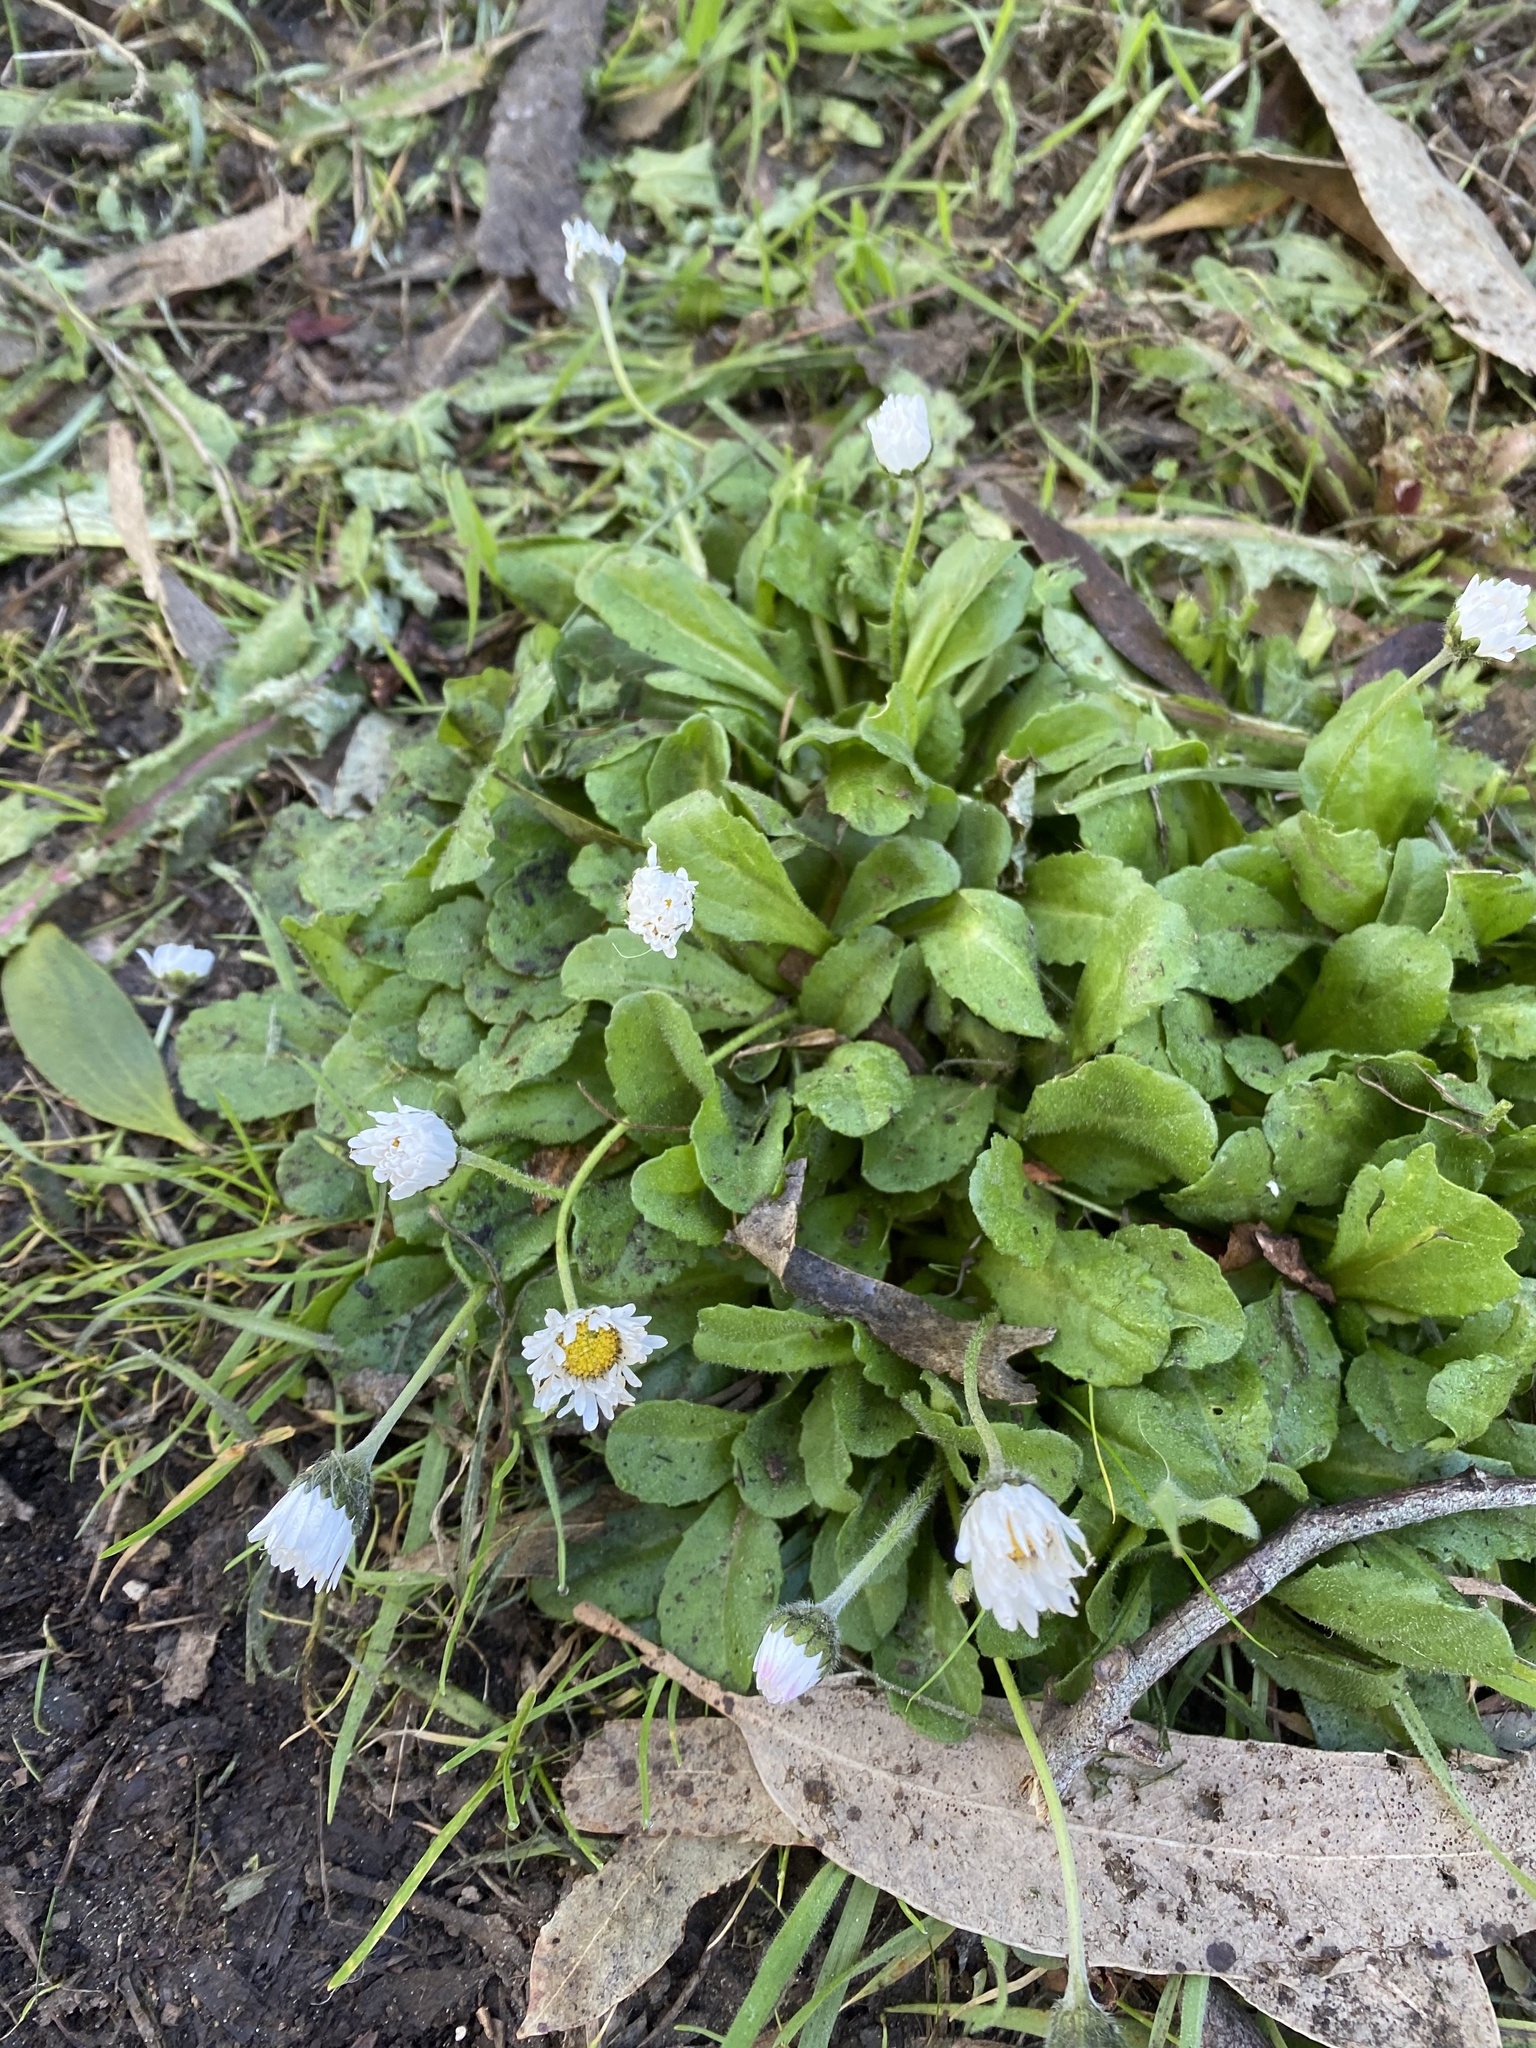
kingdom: Plantae
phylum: Tracheophyta
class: Magnoliopsida
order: Asterales
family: Asteraceae
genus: Bellis
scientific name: Bellis perennis
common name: Lawndaisy
